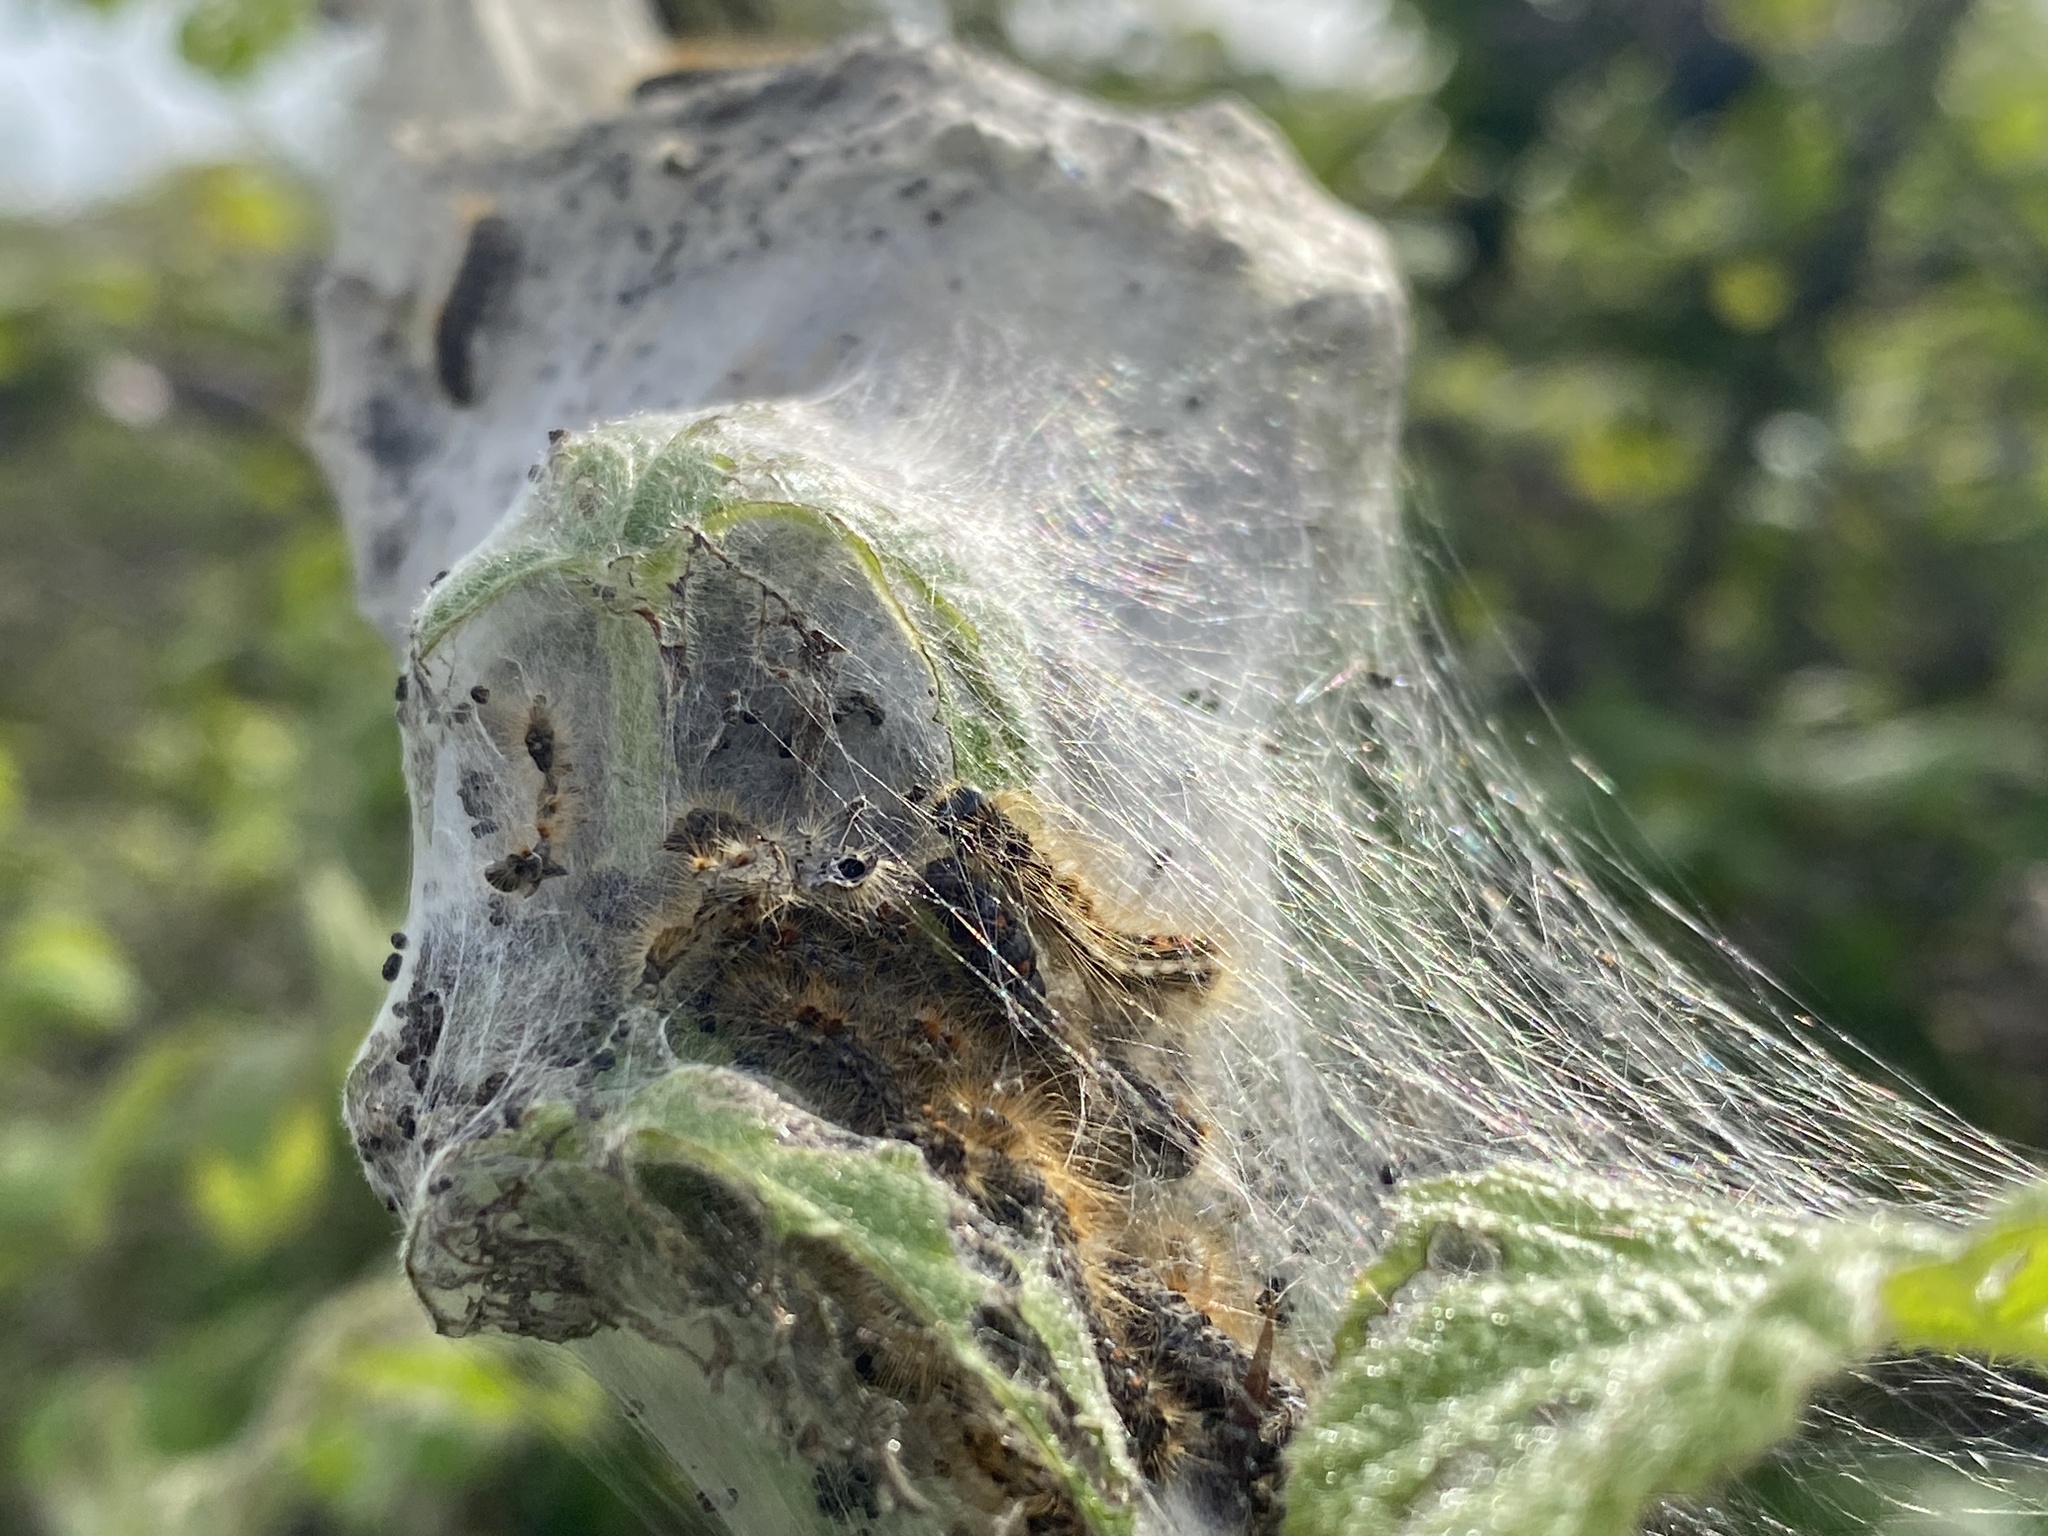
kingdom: Animalia
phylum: Arthropoda
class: Insecta
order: Lepidoptera
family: Erebidae
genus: Euproctis
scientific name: Euproctis chrysorrhoea
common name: Brown-tail
